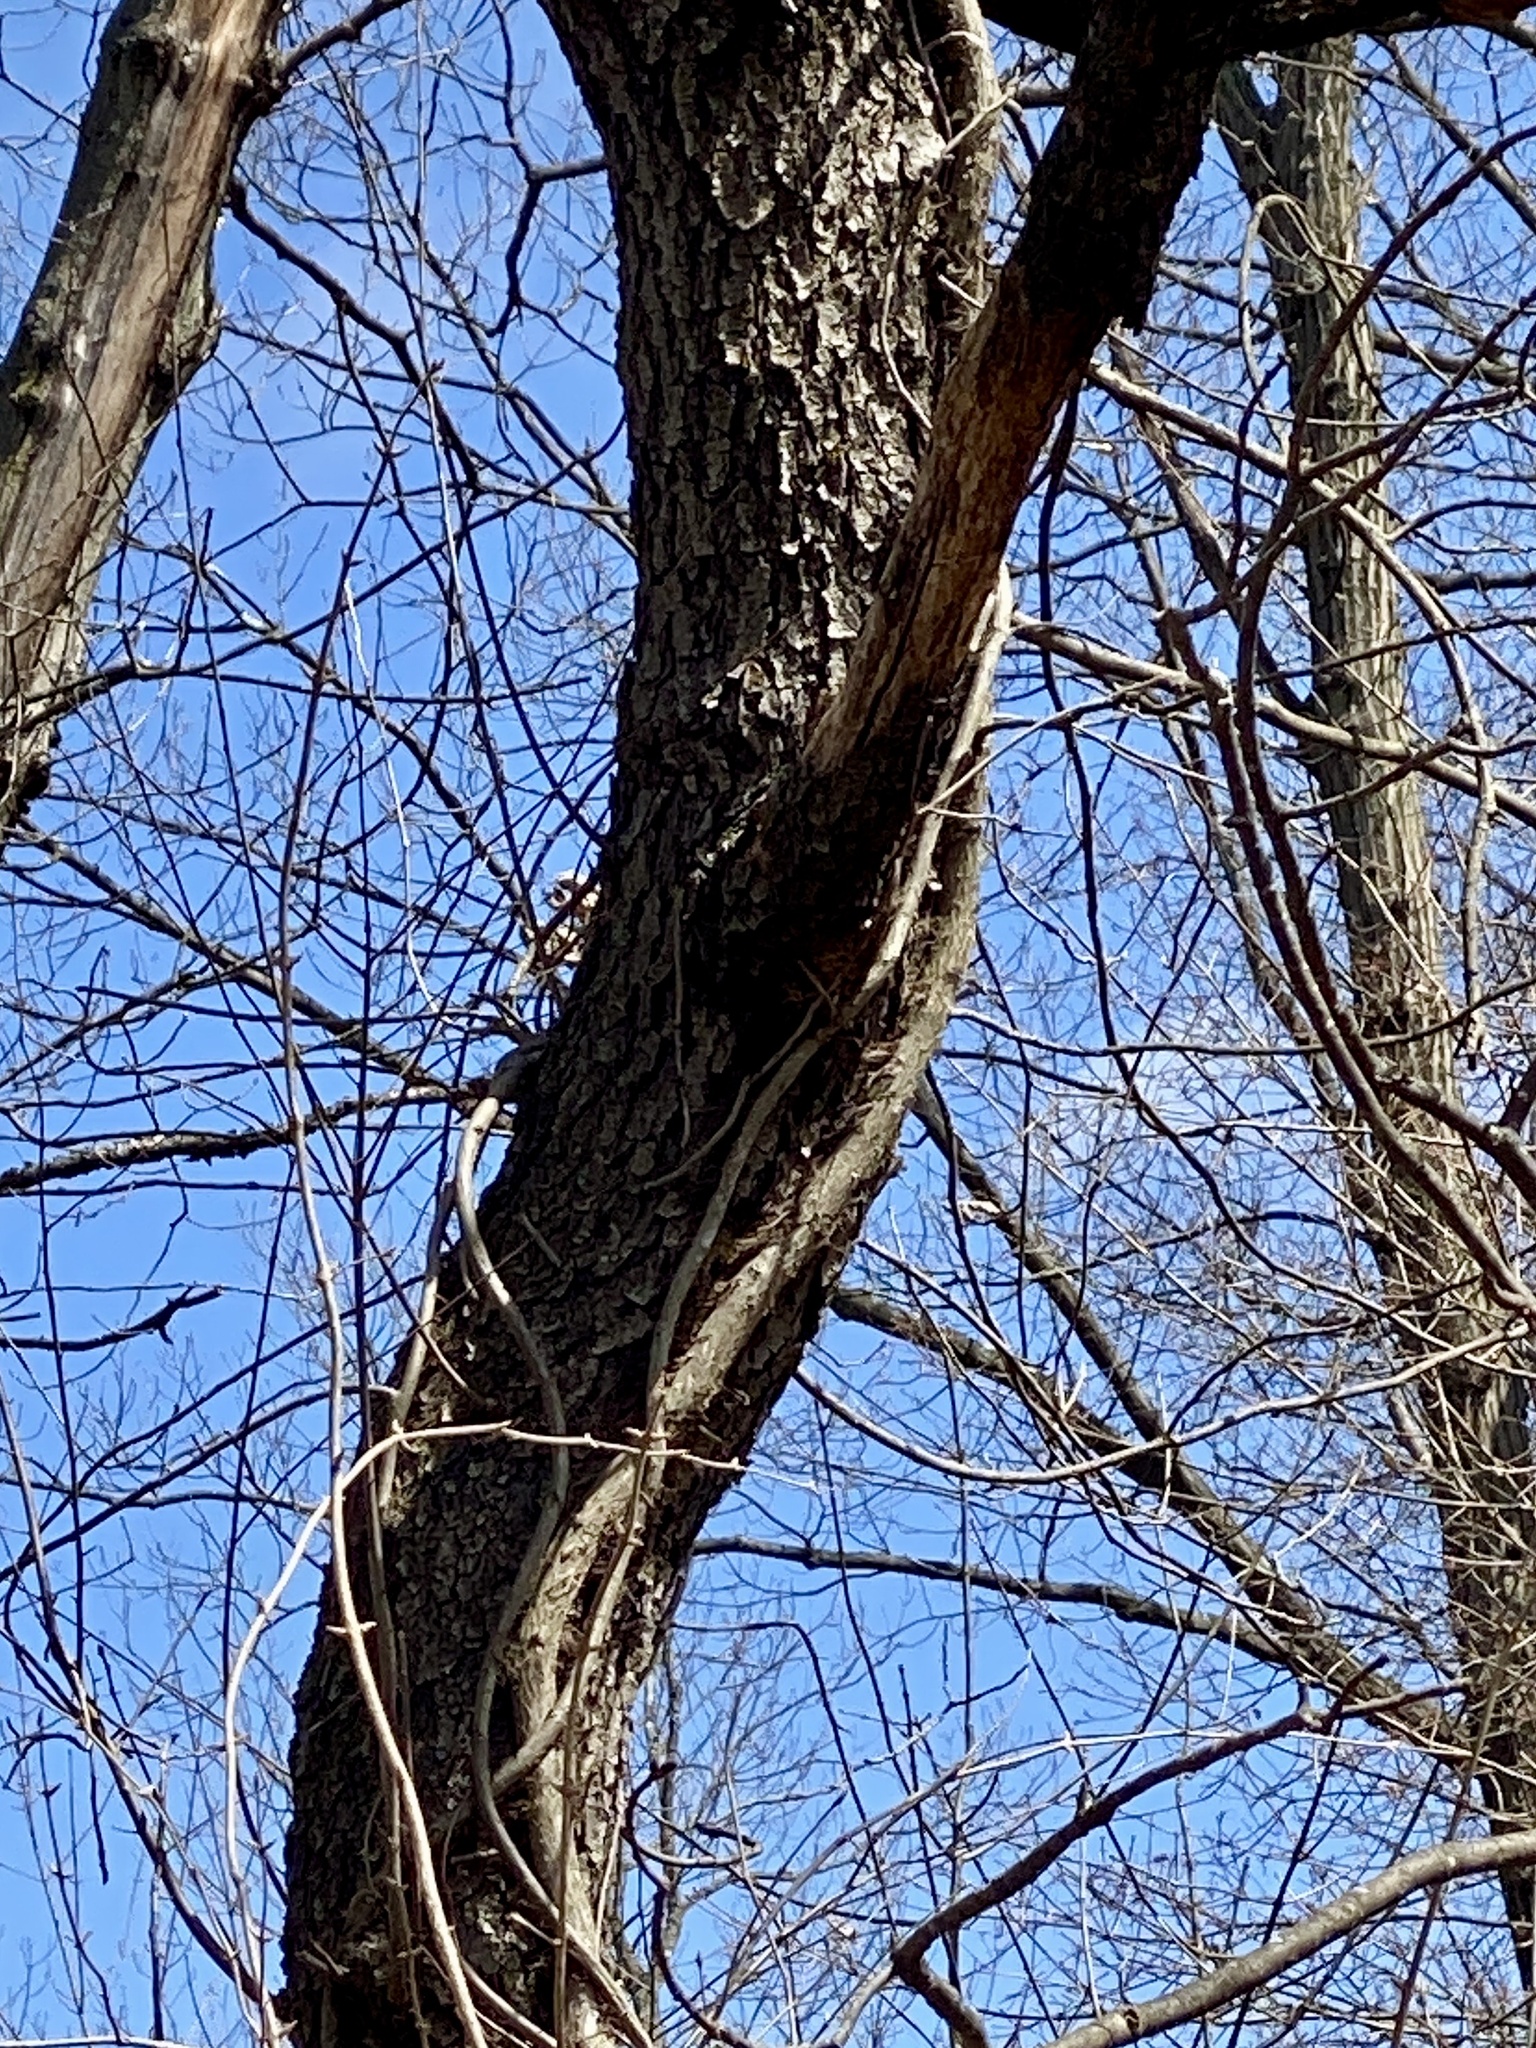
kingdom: Plantae
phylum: Tracheophyta
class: Magnoliopsida
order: Rosales
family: Rosaceae
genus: Prunus
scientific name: Prunus serotina
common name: Black cherry
